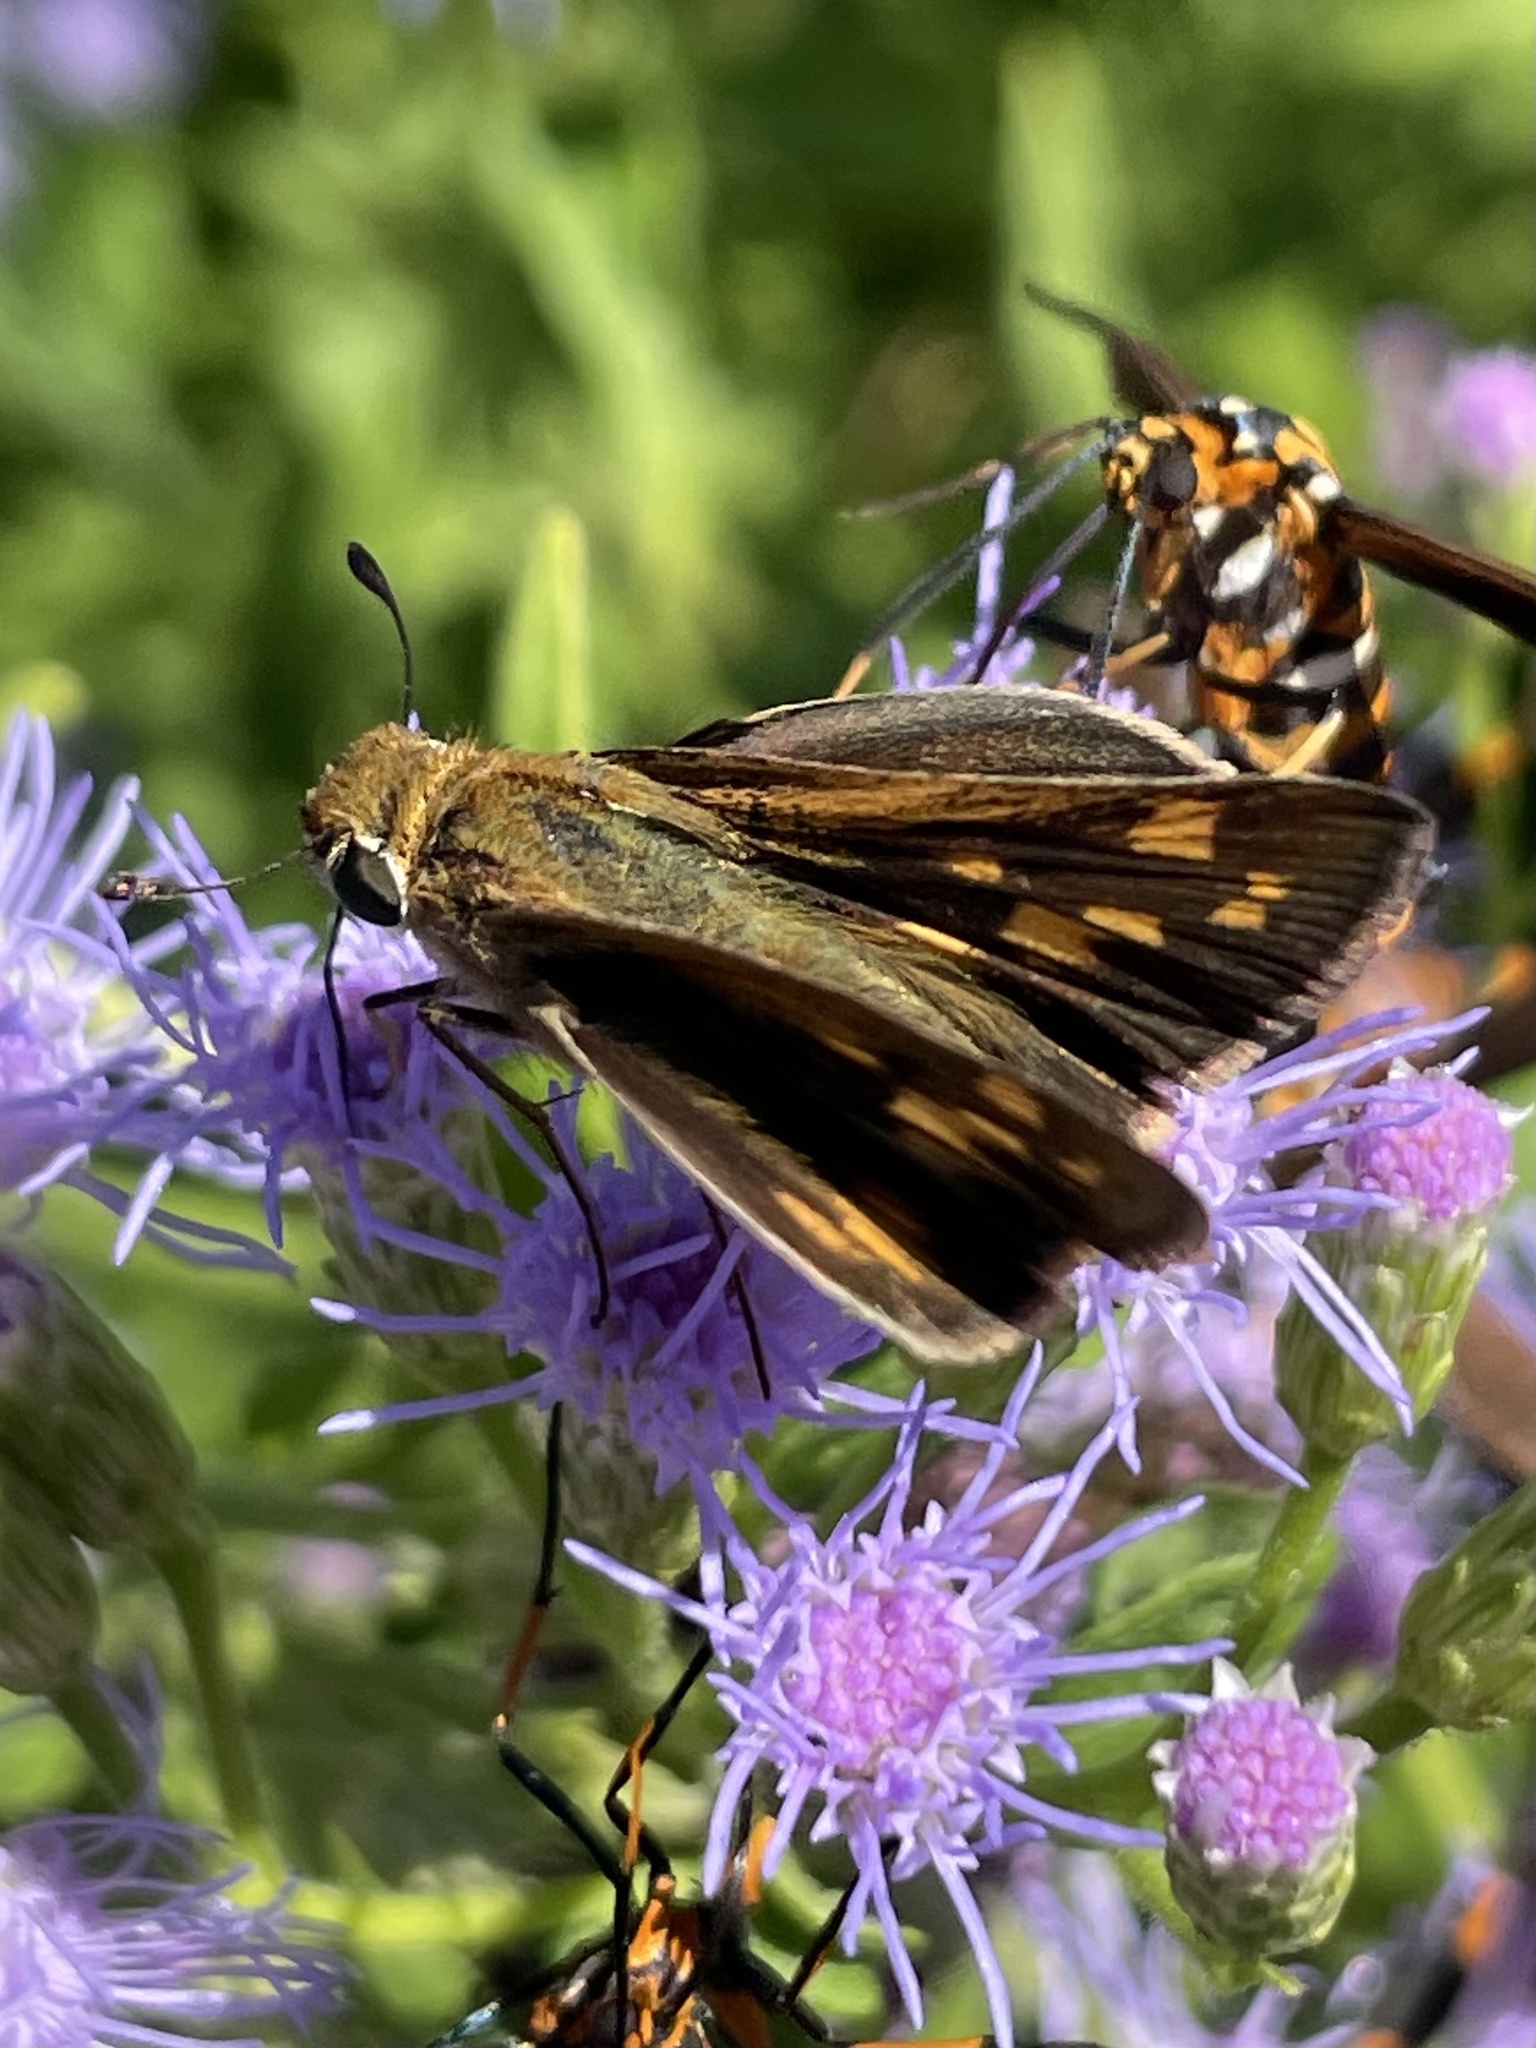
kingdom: Animalia
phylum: Arthropoda
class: Insecta
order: Lepidoptera
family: Hesperiidae
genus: Hylephila
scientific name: Hylephila phyleus
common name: Fiery skipper
